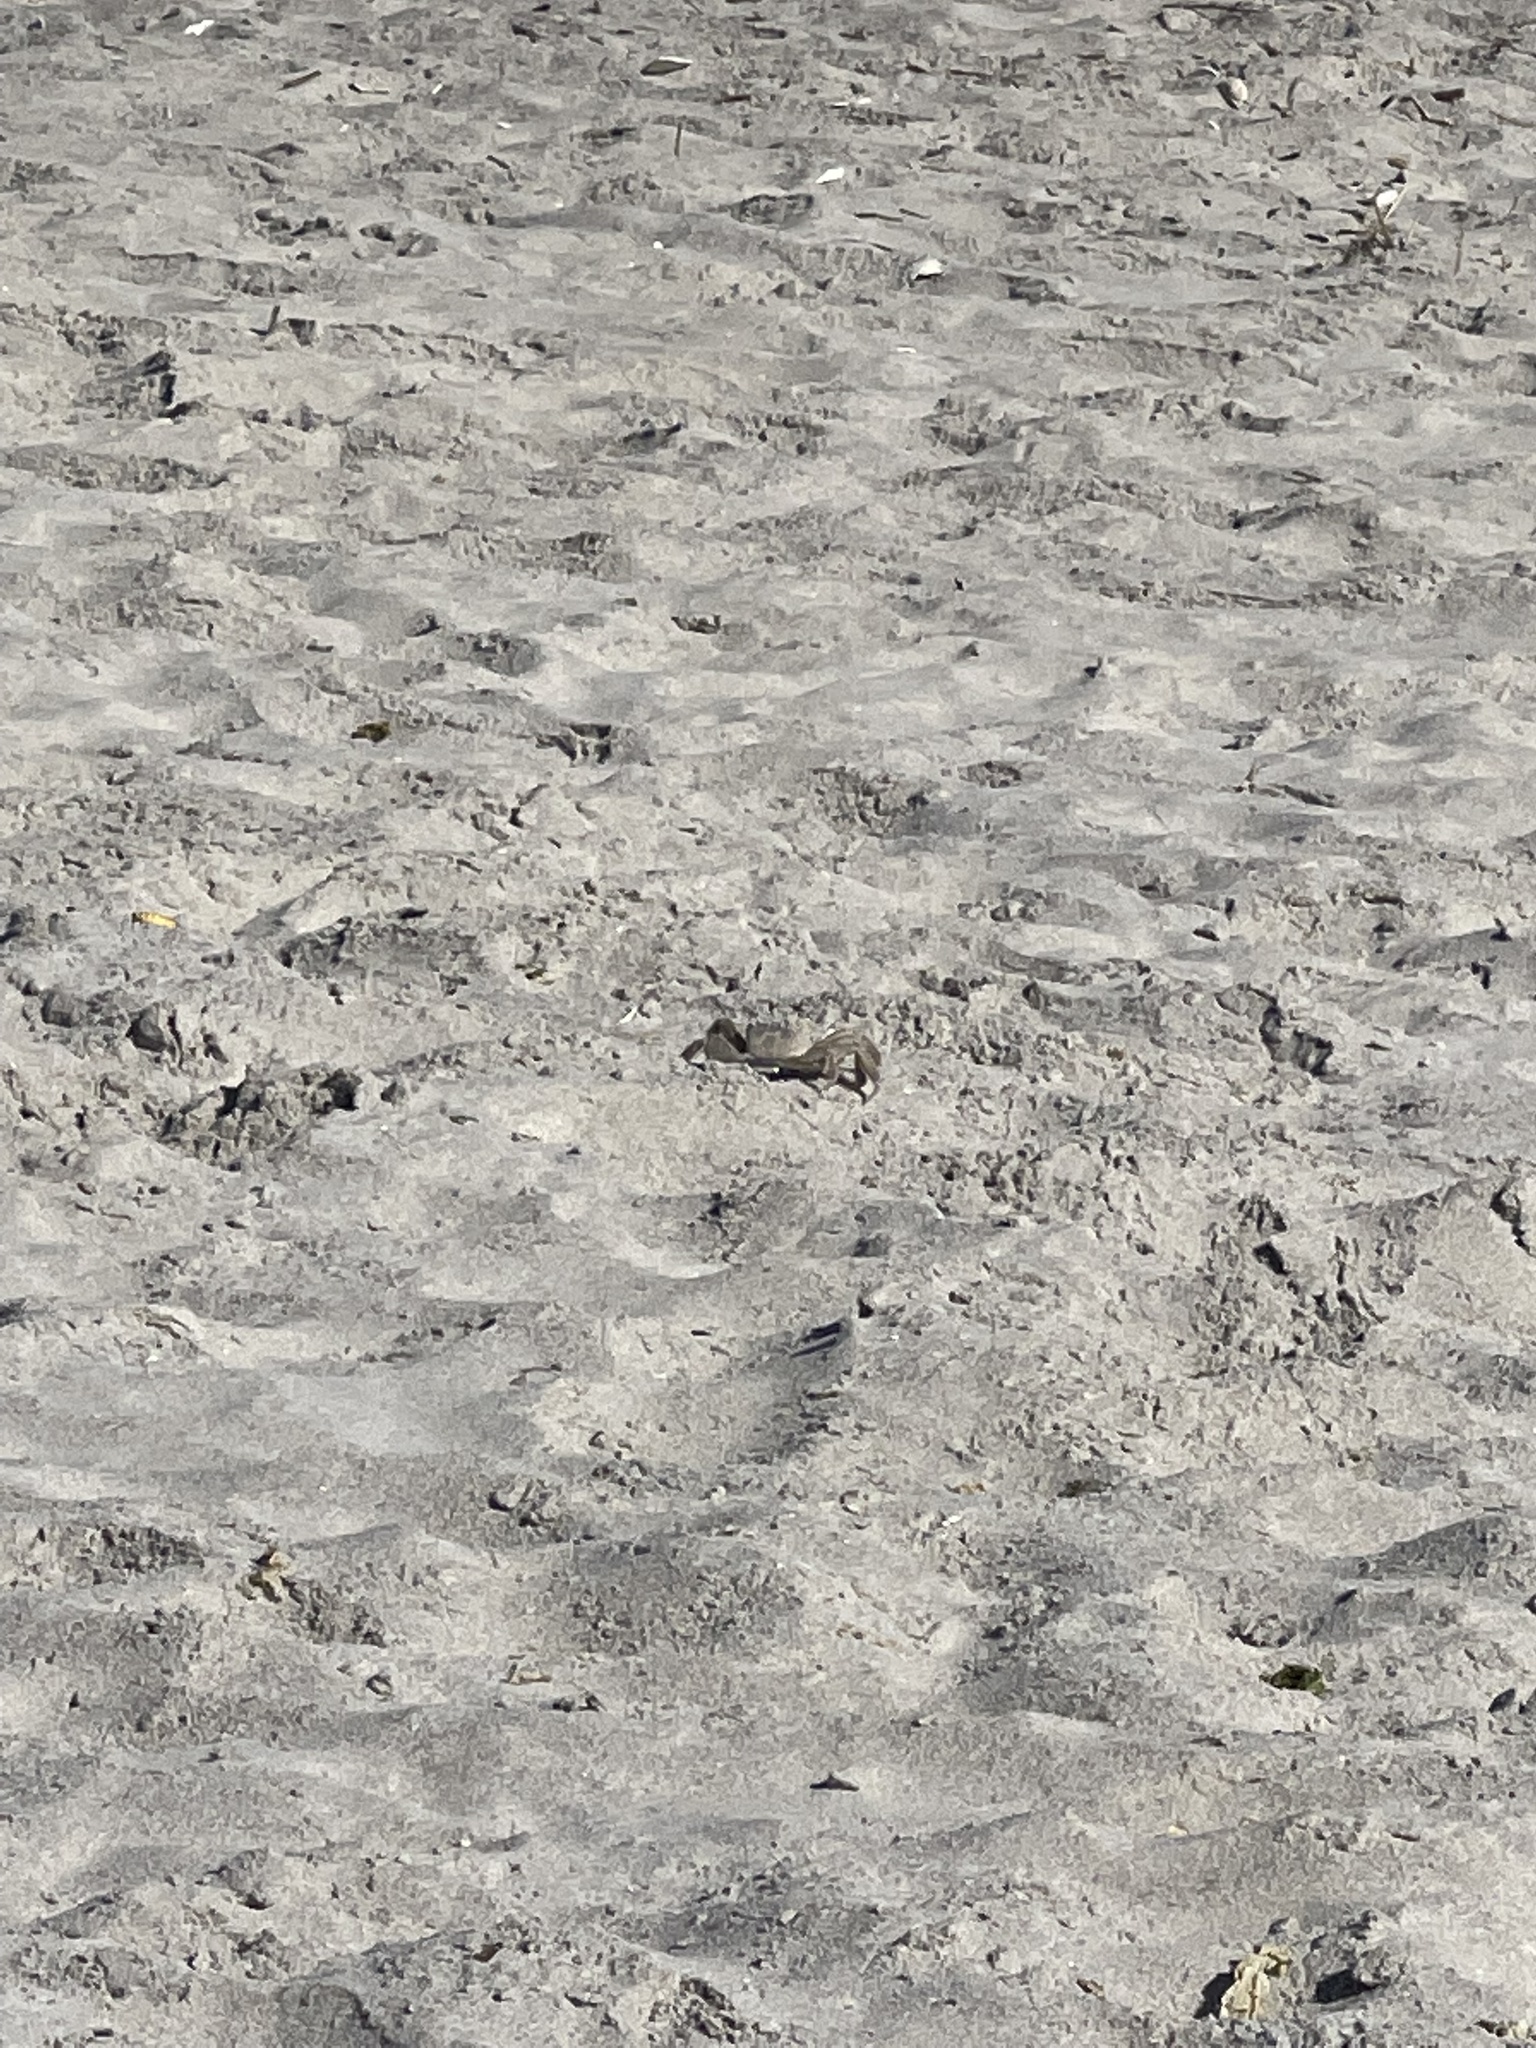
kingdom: Animalia
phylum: Arthropoda
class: Malacostraca
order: Decapoda
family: Ocypodidae
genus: Ocypode
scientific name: Ocypode quadrata
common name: Ghost crab
